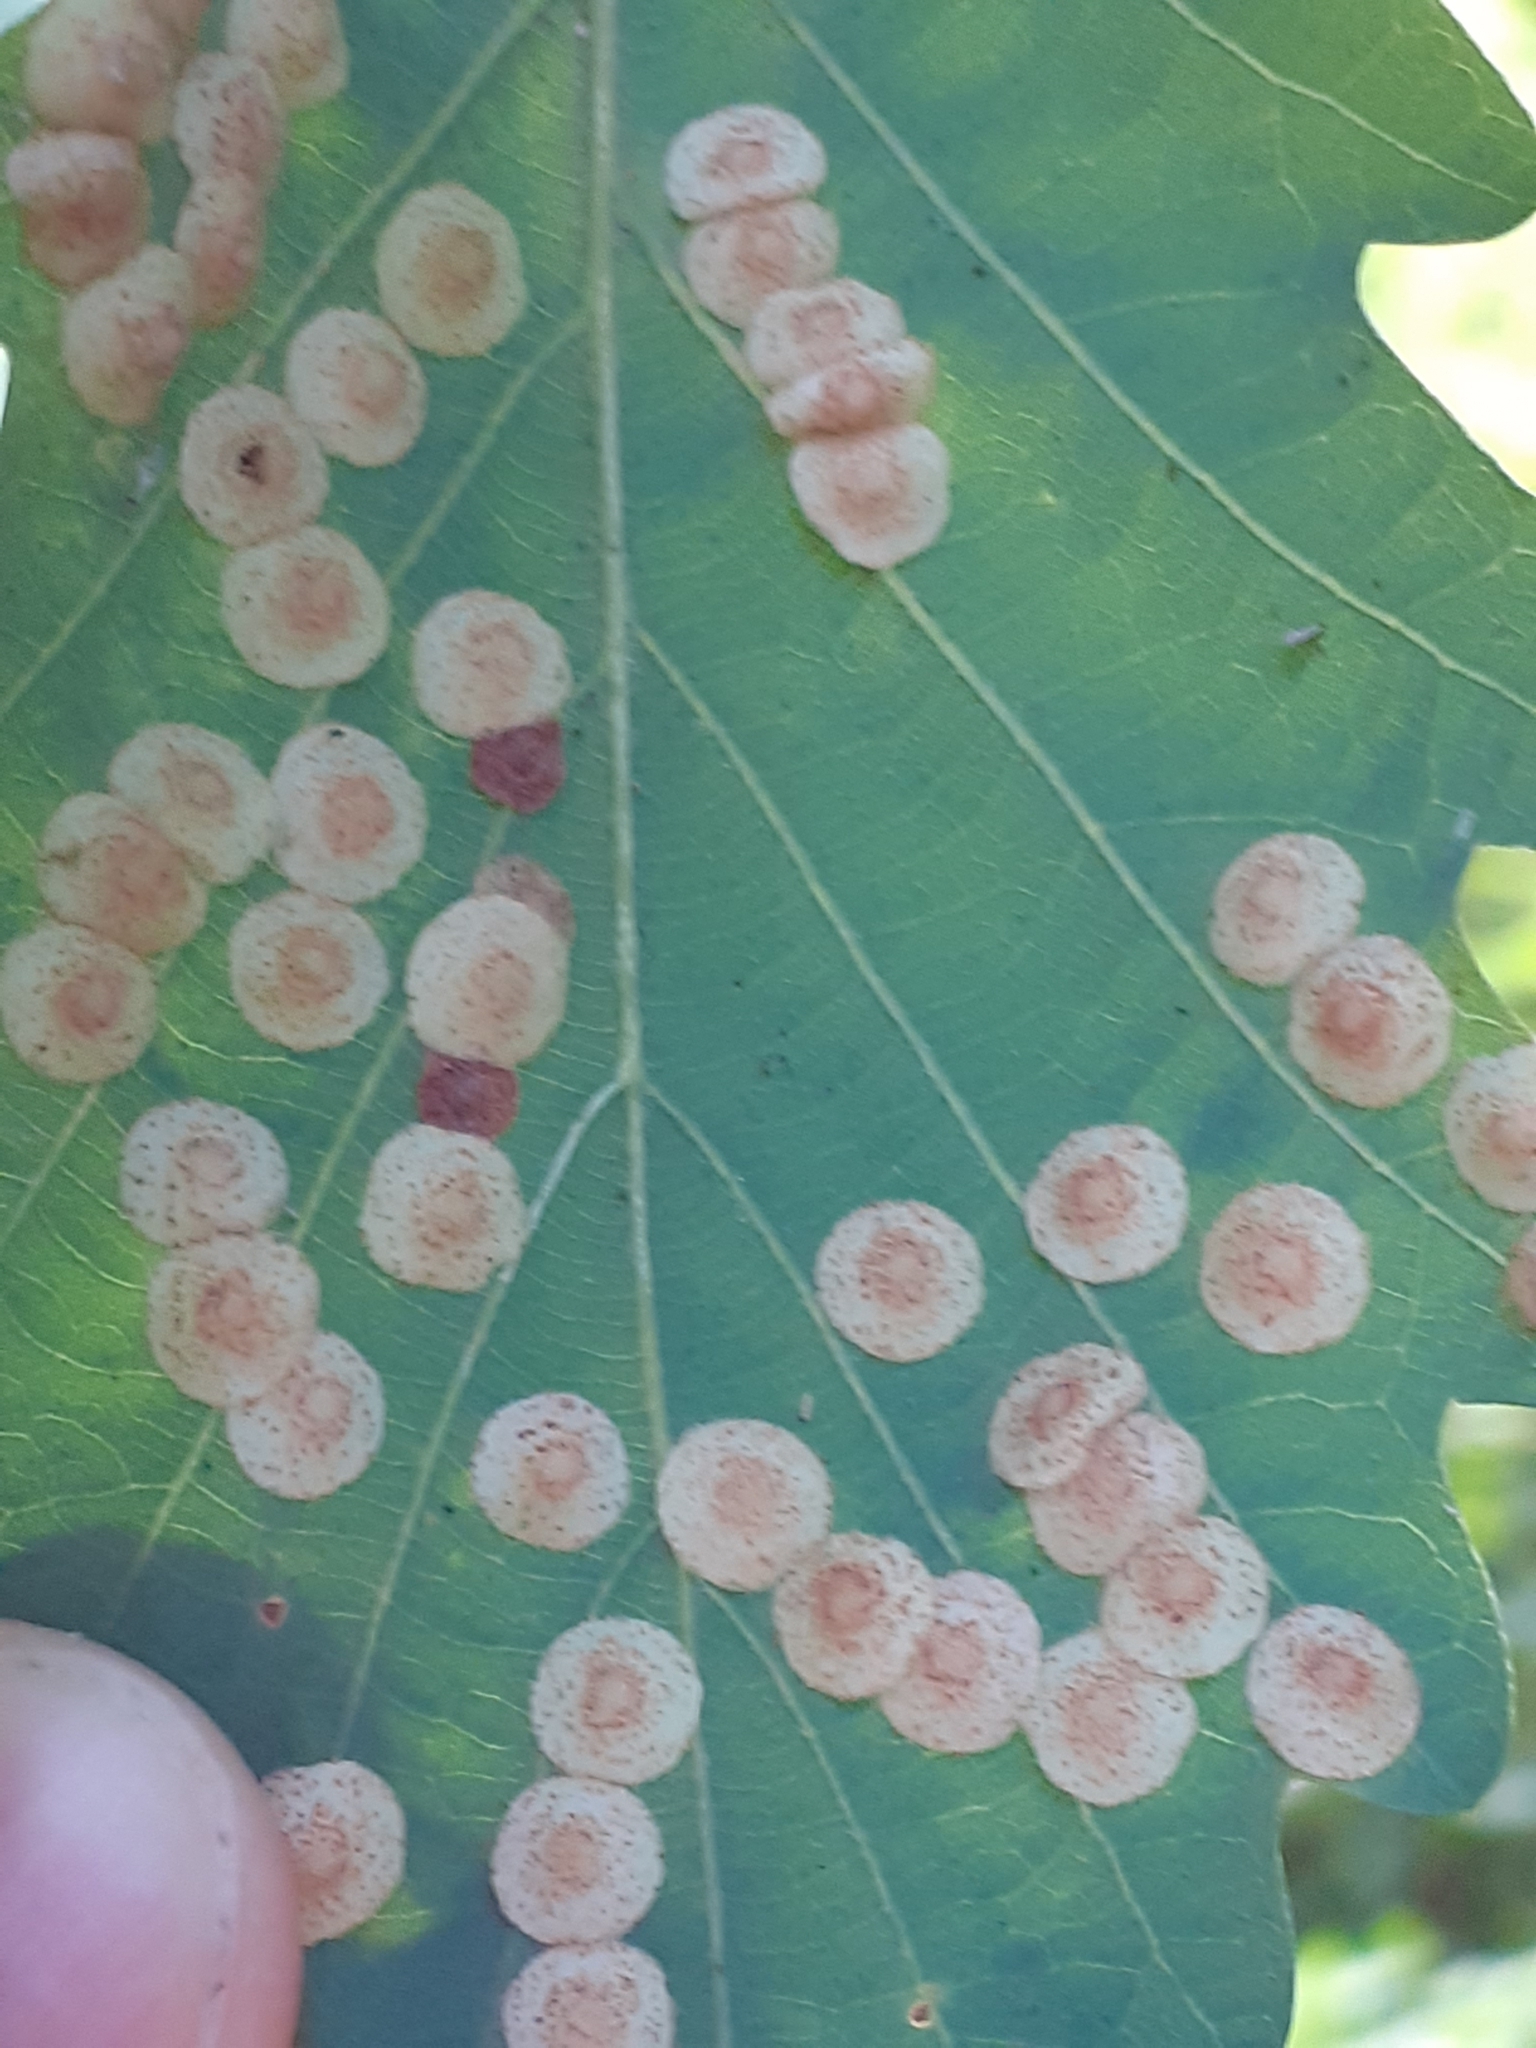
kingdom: Animalia
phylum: Arthropoda
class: Insecta
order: Hymenoptera
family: Cynipidae
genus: Neuroterus
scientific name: Neuroterus quercusbaccarum
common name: Common spangle gall
